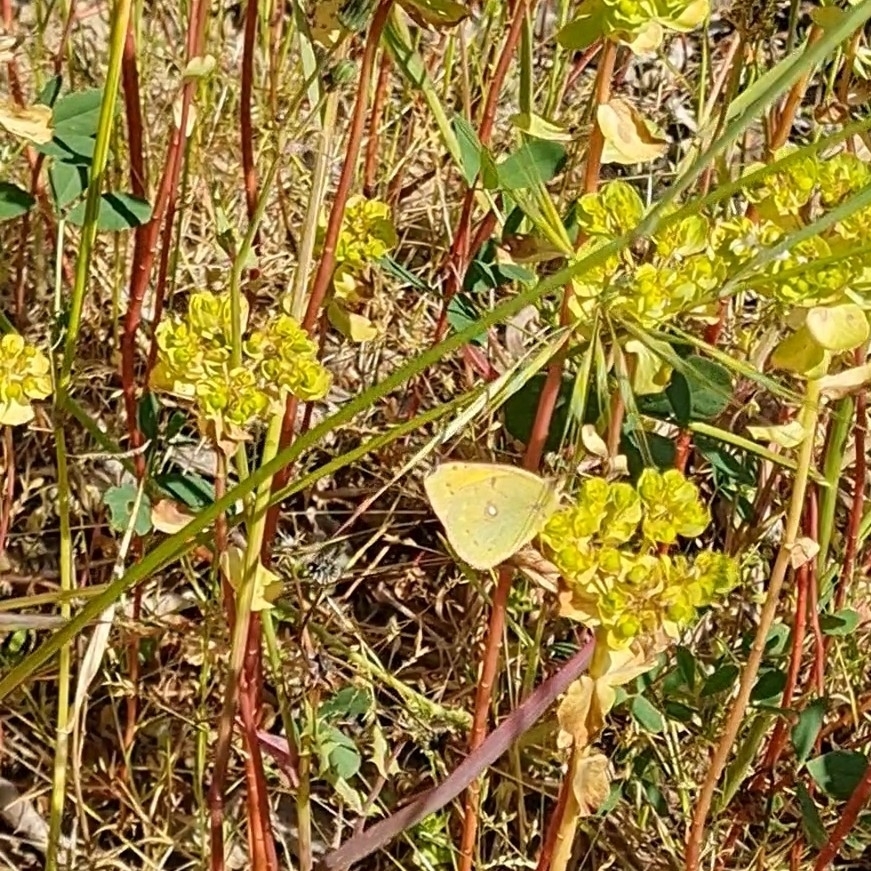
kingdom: Animalia
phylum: Arthropoda
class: Insecta
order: Lepidoptera
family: Pieridae
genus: Colias
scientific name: Colias croceus
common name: Clouded yellow
